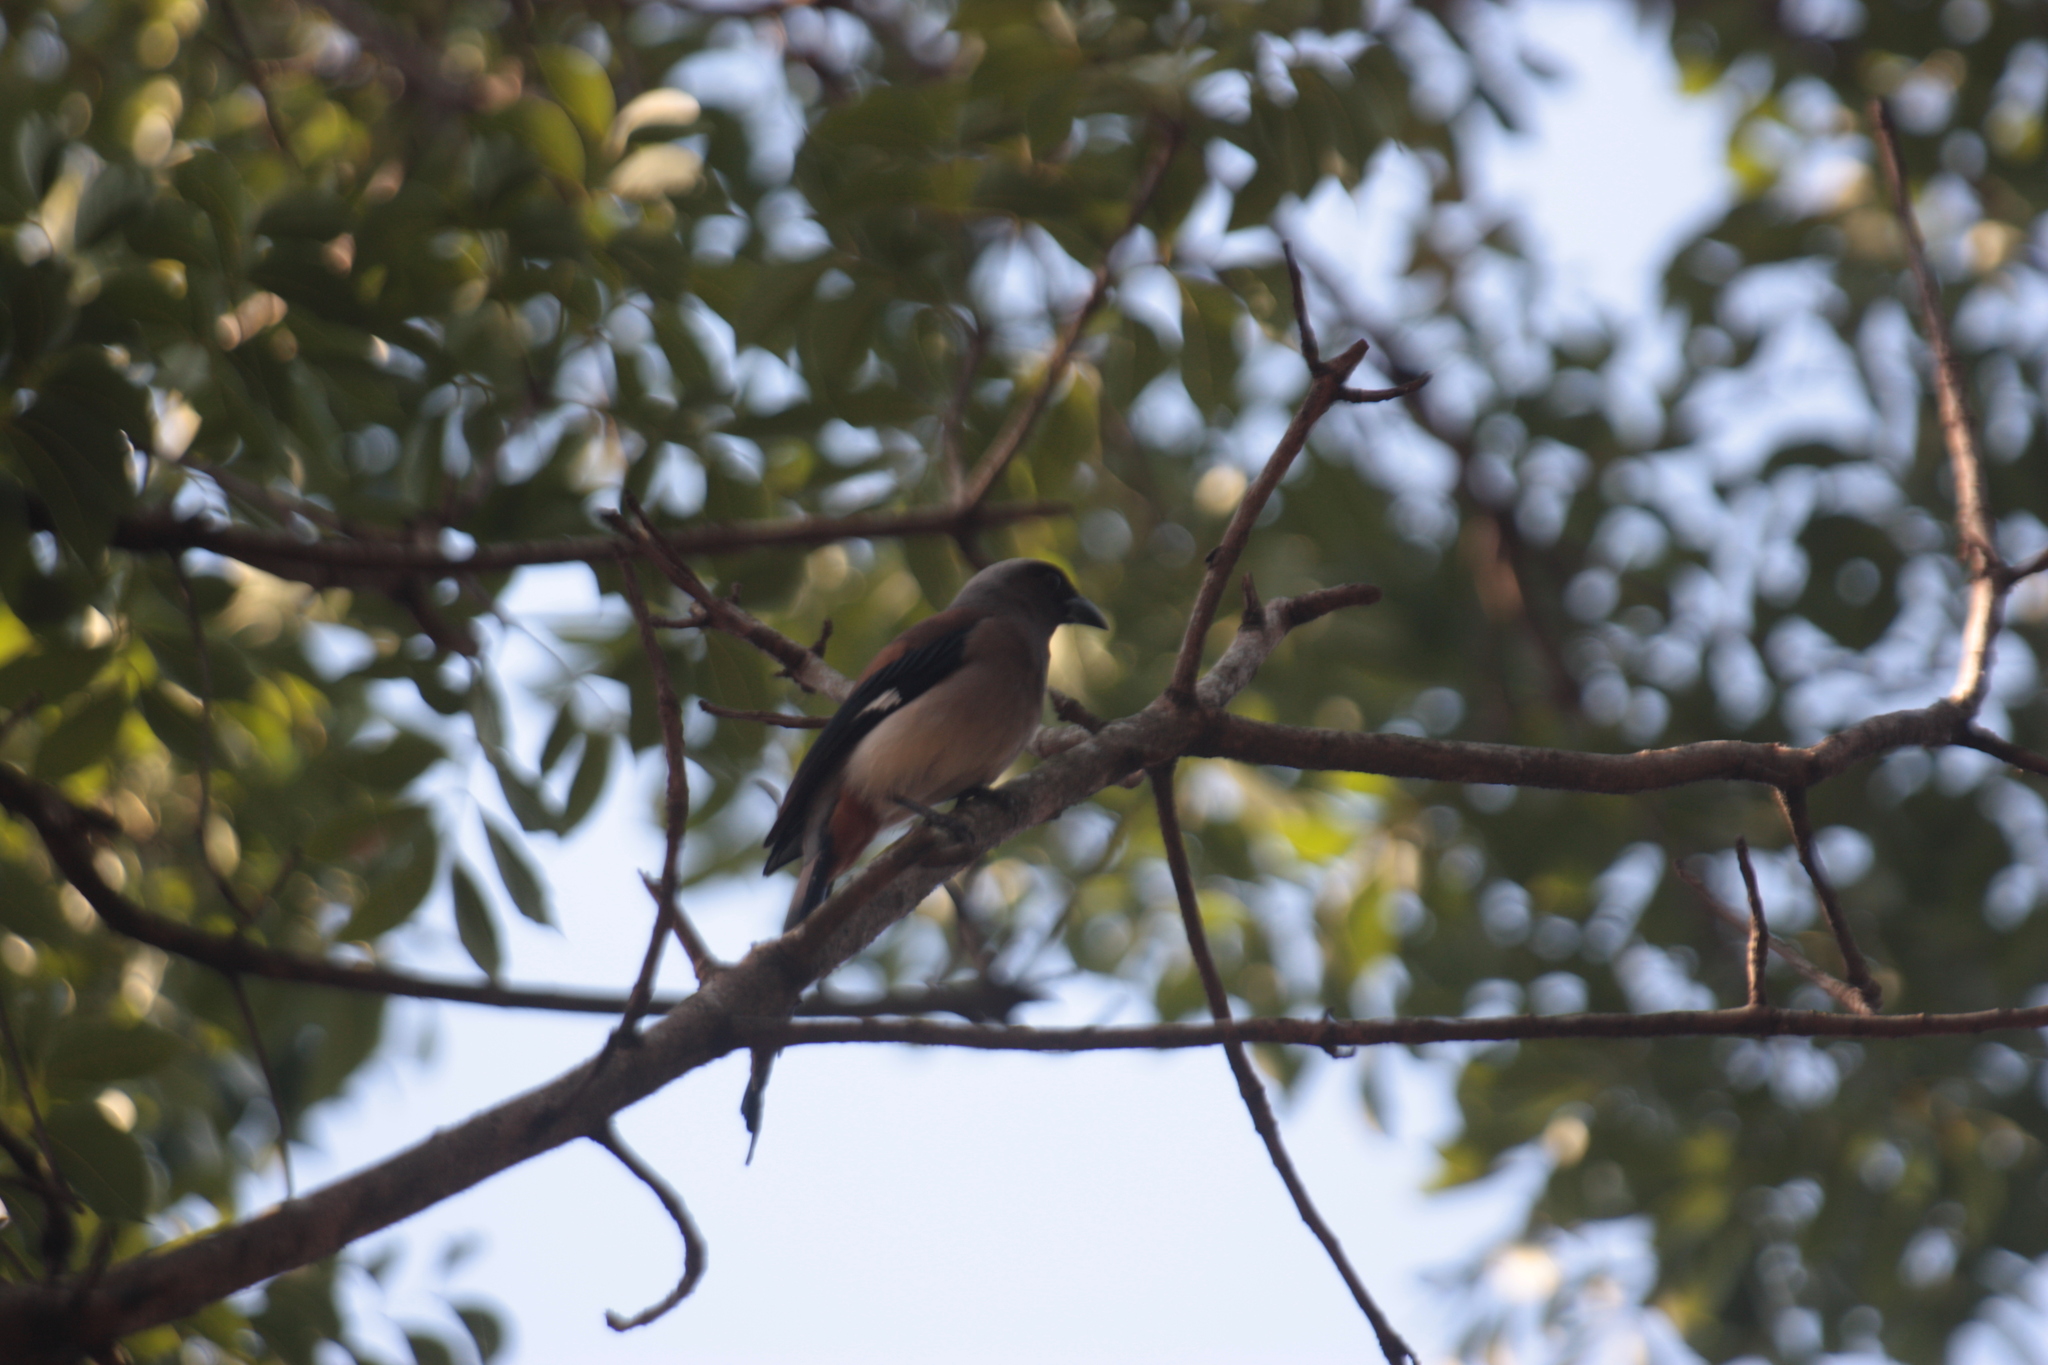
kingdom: Animalia
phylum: Chordata
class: Aves
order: Passeriformes
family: Corvidae
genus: Dendrocitta
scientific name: Dendrocitta formosae
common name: Grey treepie
